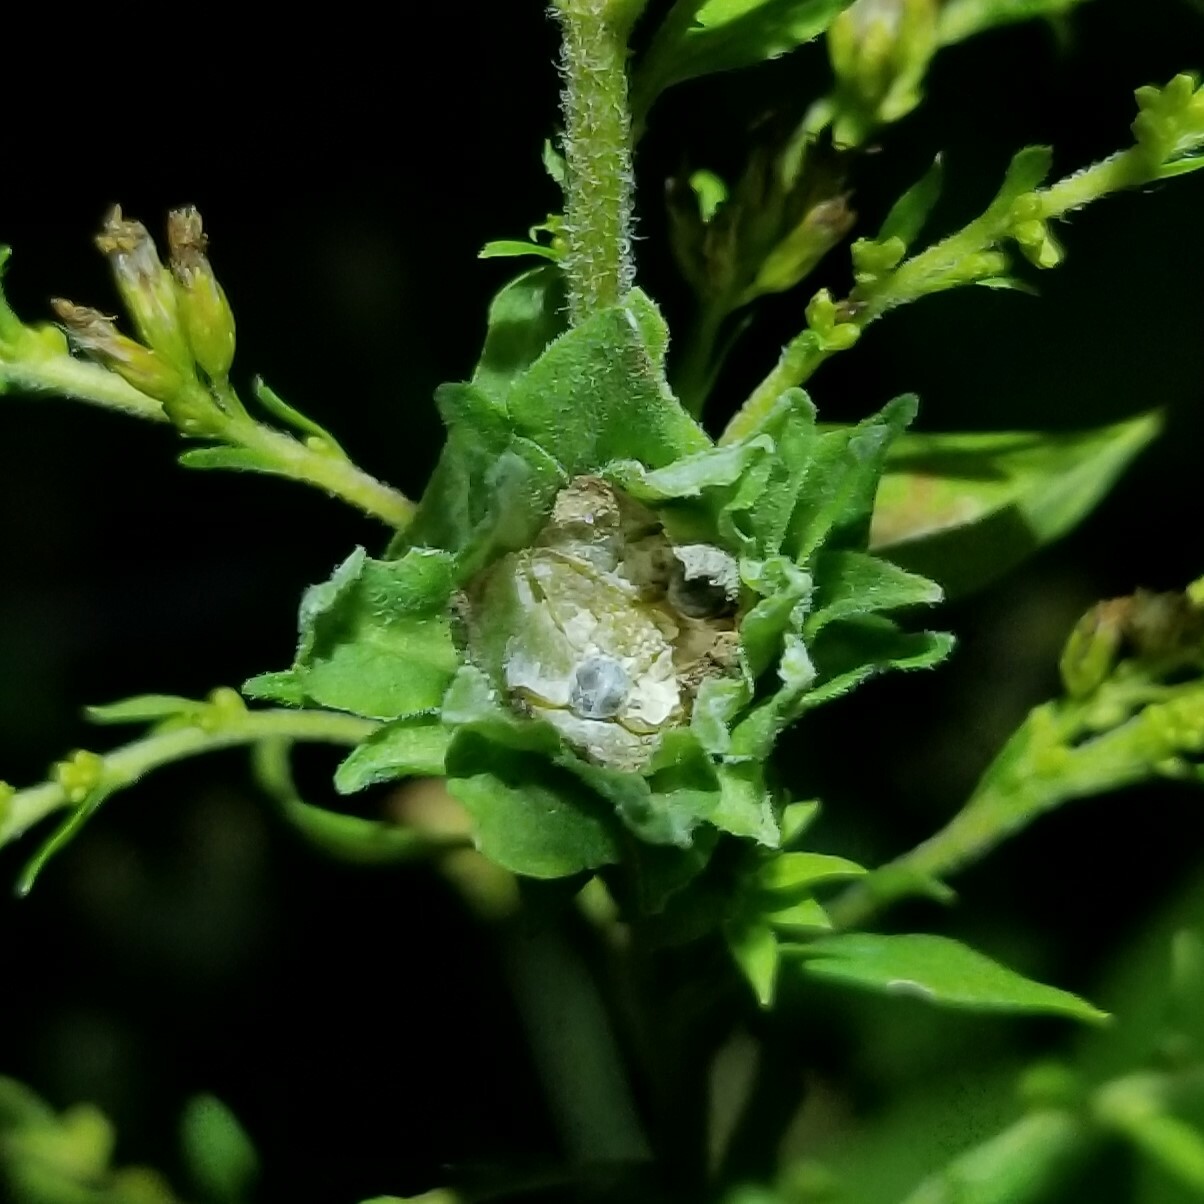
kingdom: Animalia
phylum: Arthropoda
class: Insecta
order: Hymenoptera
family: Eulophidae
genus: Galeopsomyia
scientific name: Galeopsomyia haemon
